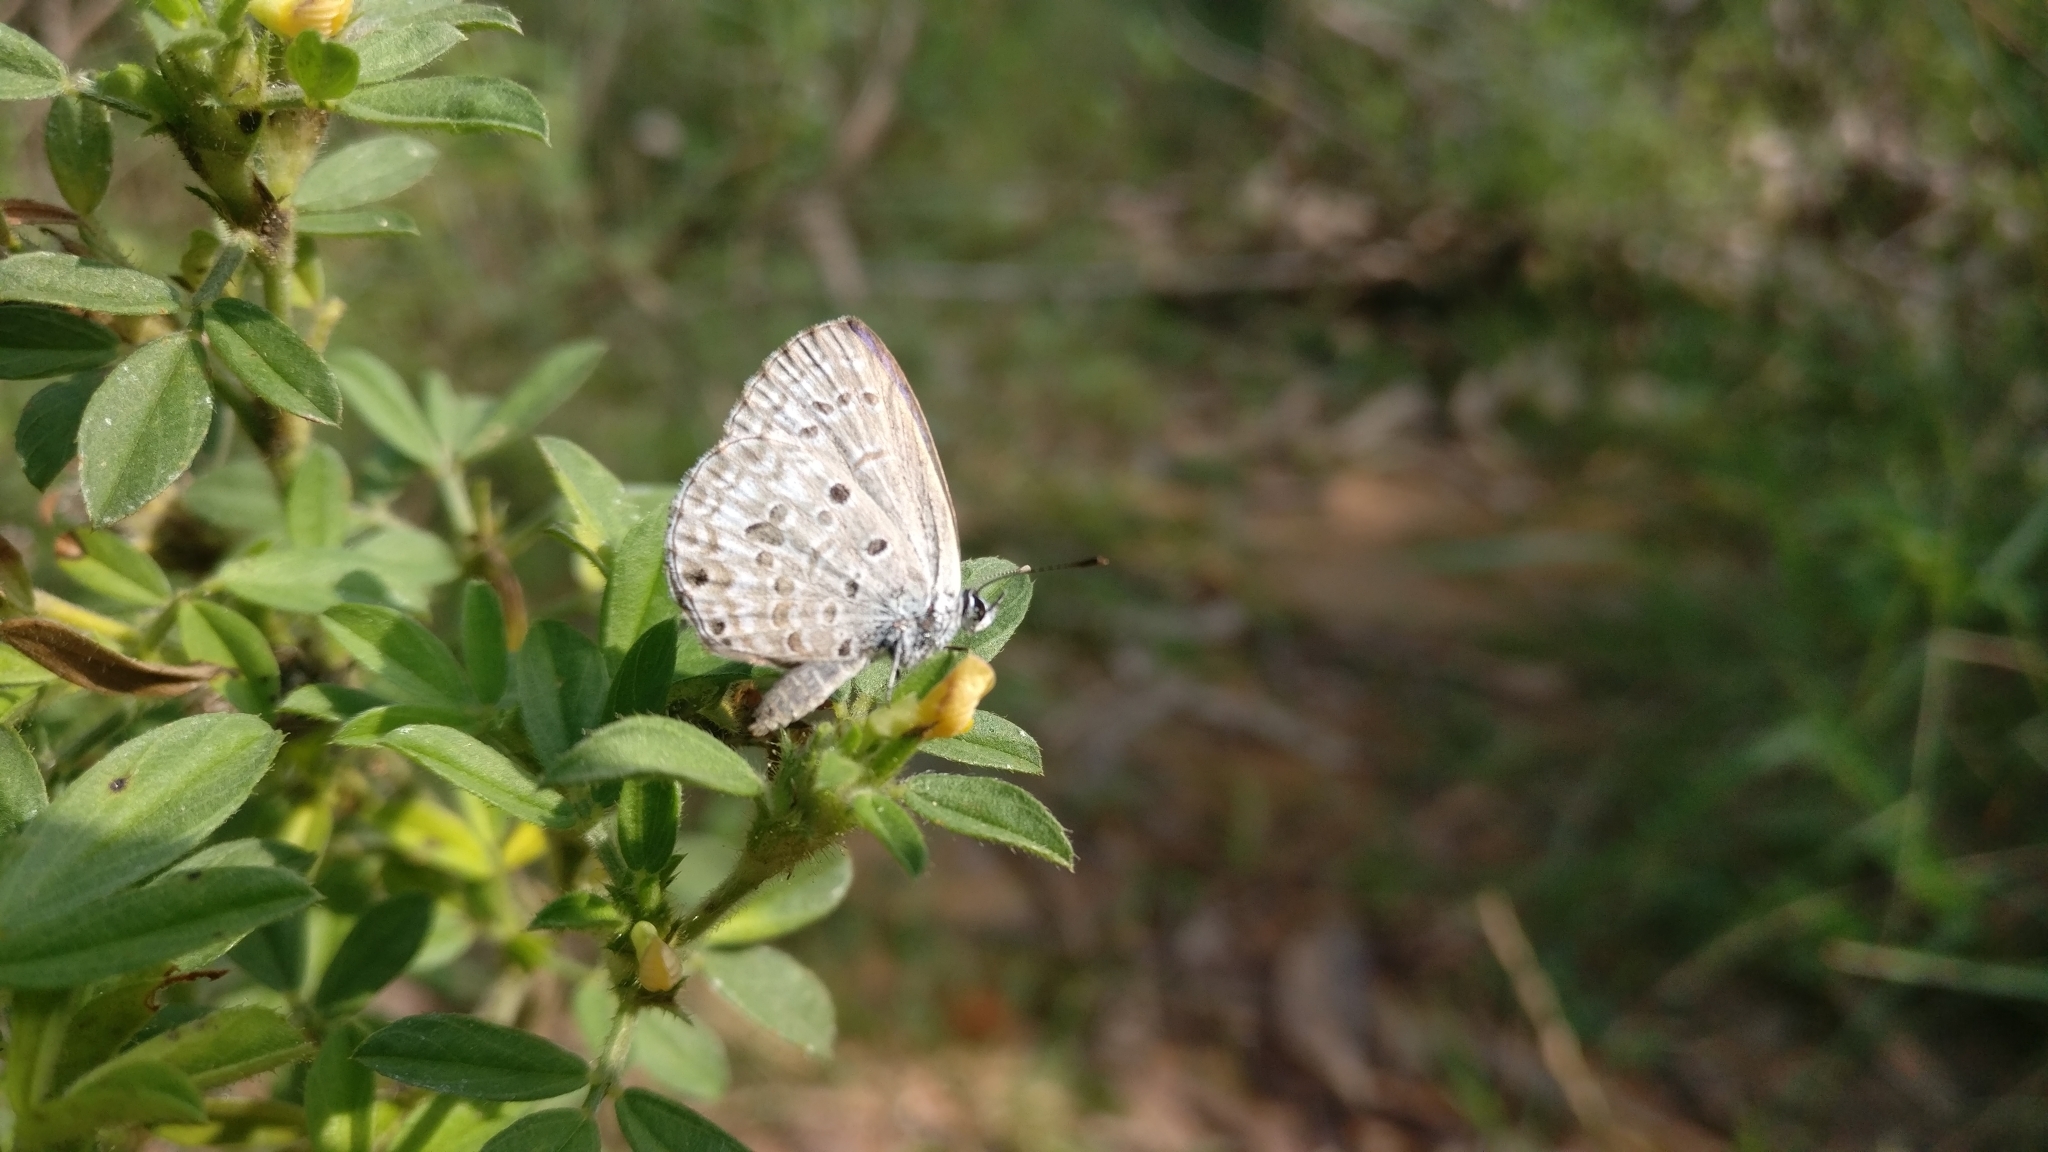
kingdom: Animalia
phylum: Arthropoda
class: Insecta
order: Lepidoptera
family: Lycaenidae
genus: Chilades
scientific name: Chilades laius
